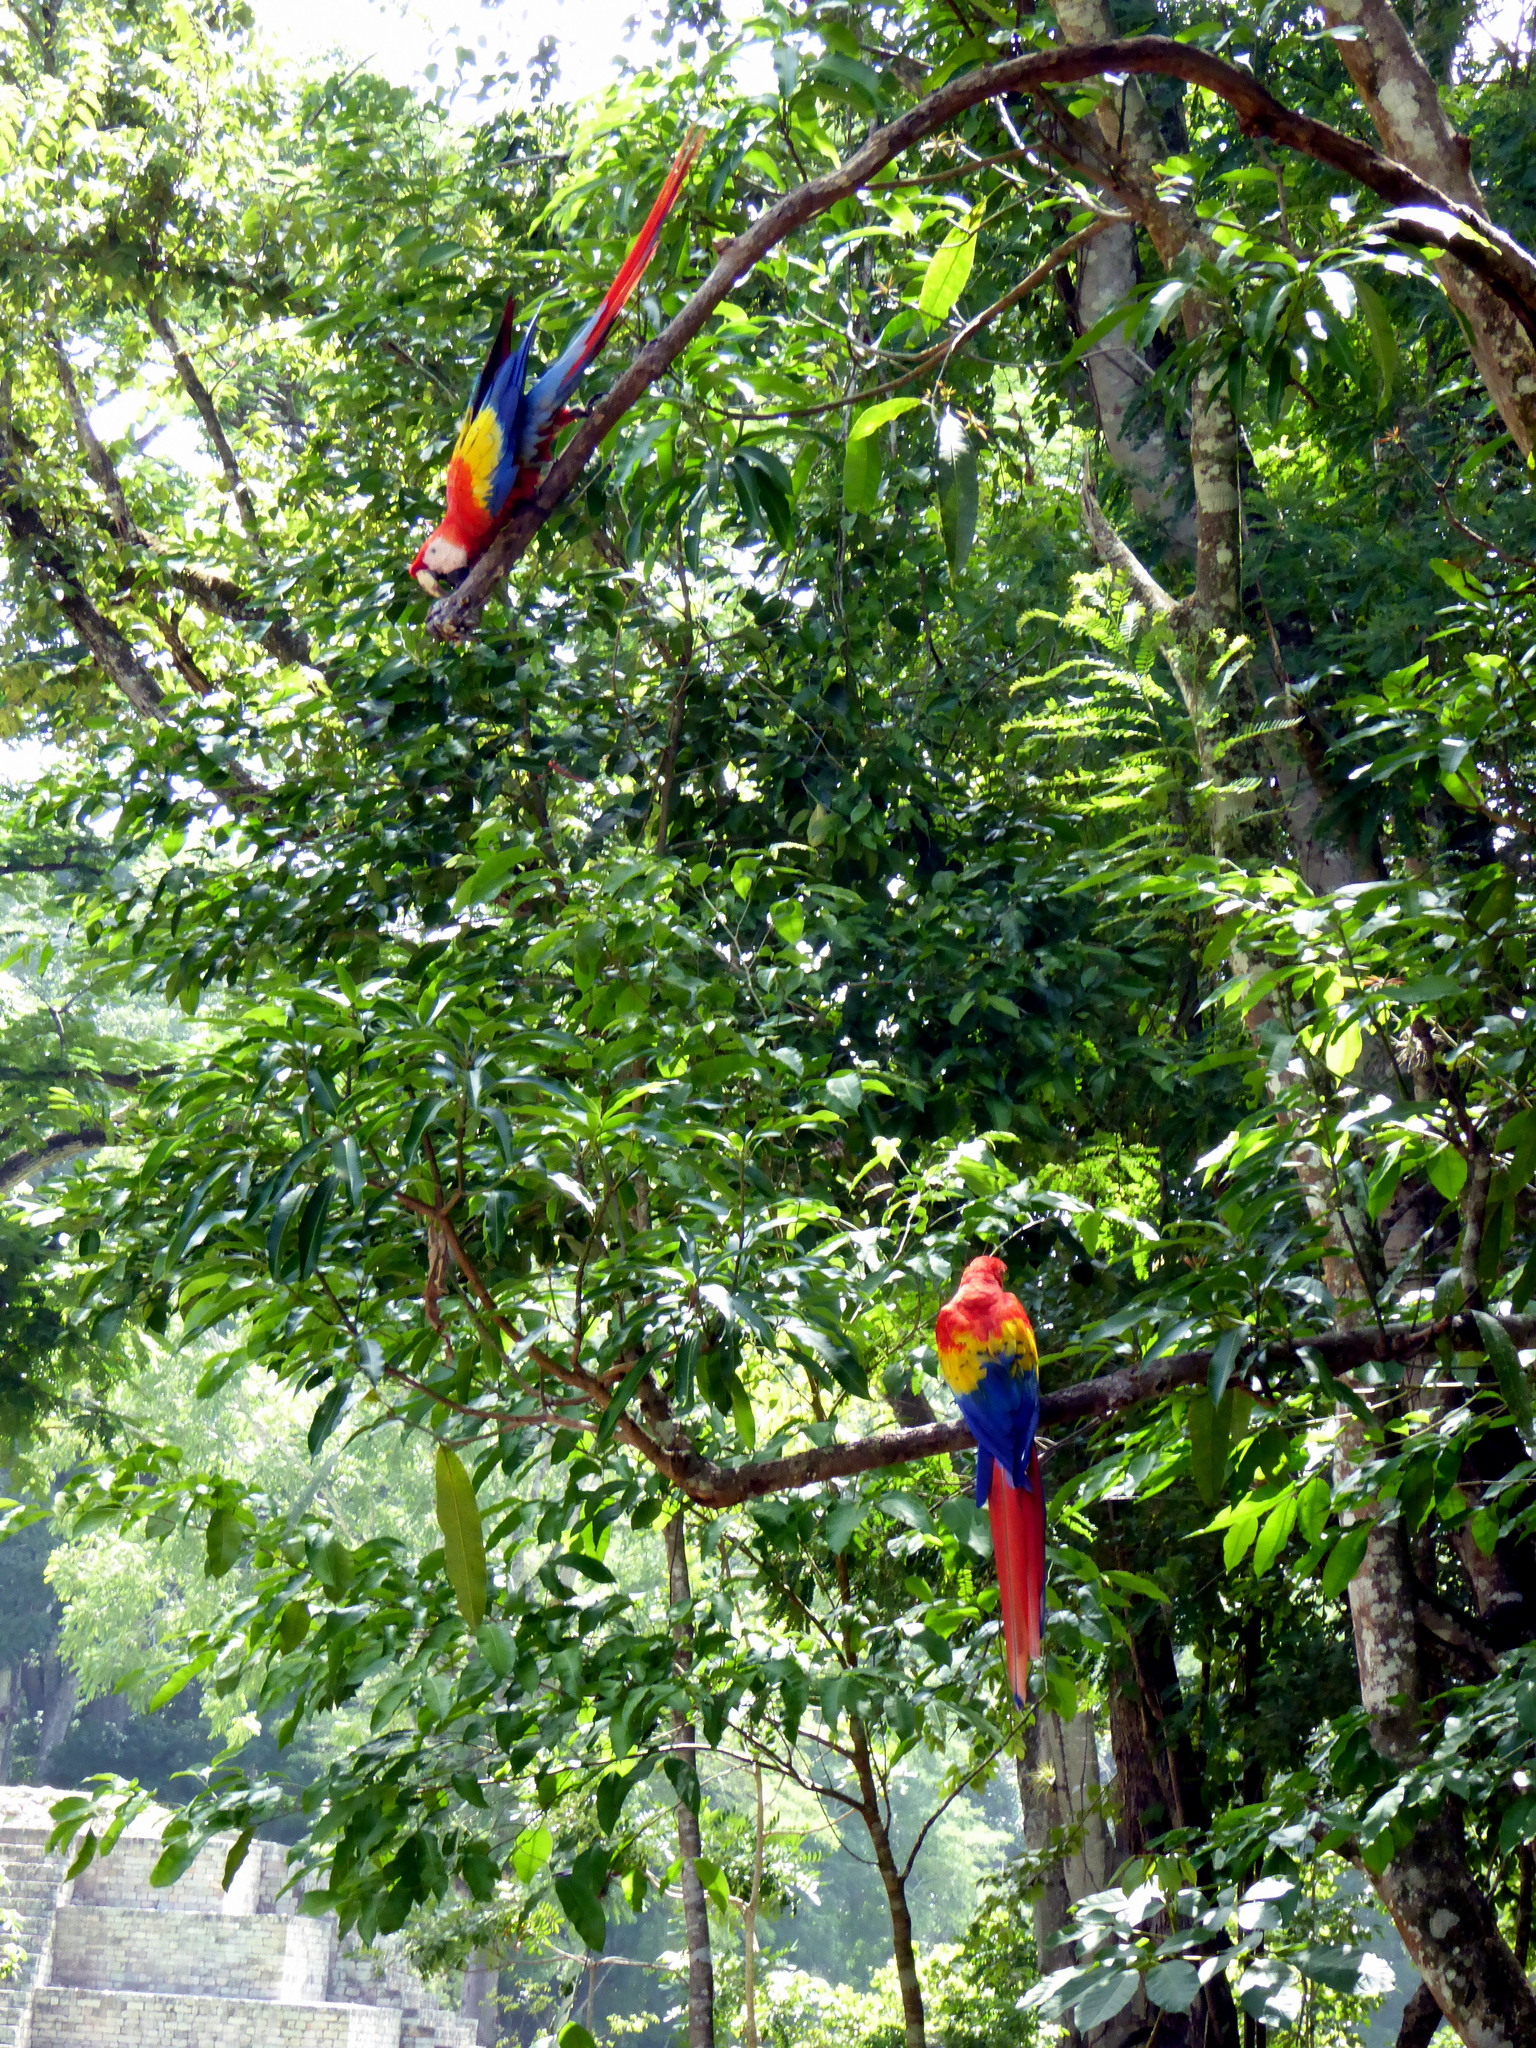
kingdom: Animalia
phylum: Chordata
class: Aves
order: Psittaciformes
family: Psittacidae
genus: Ara
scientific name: Ara macao
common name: Scarlet macaw
